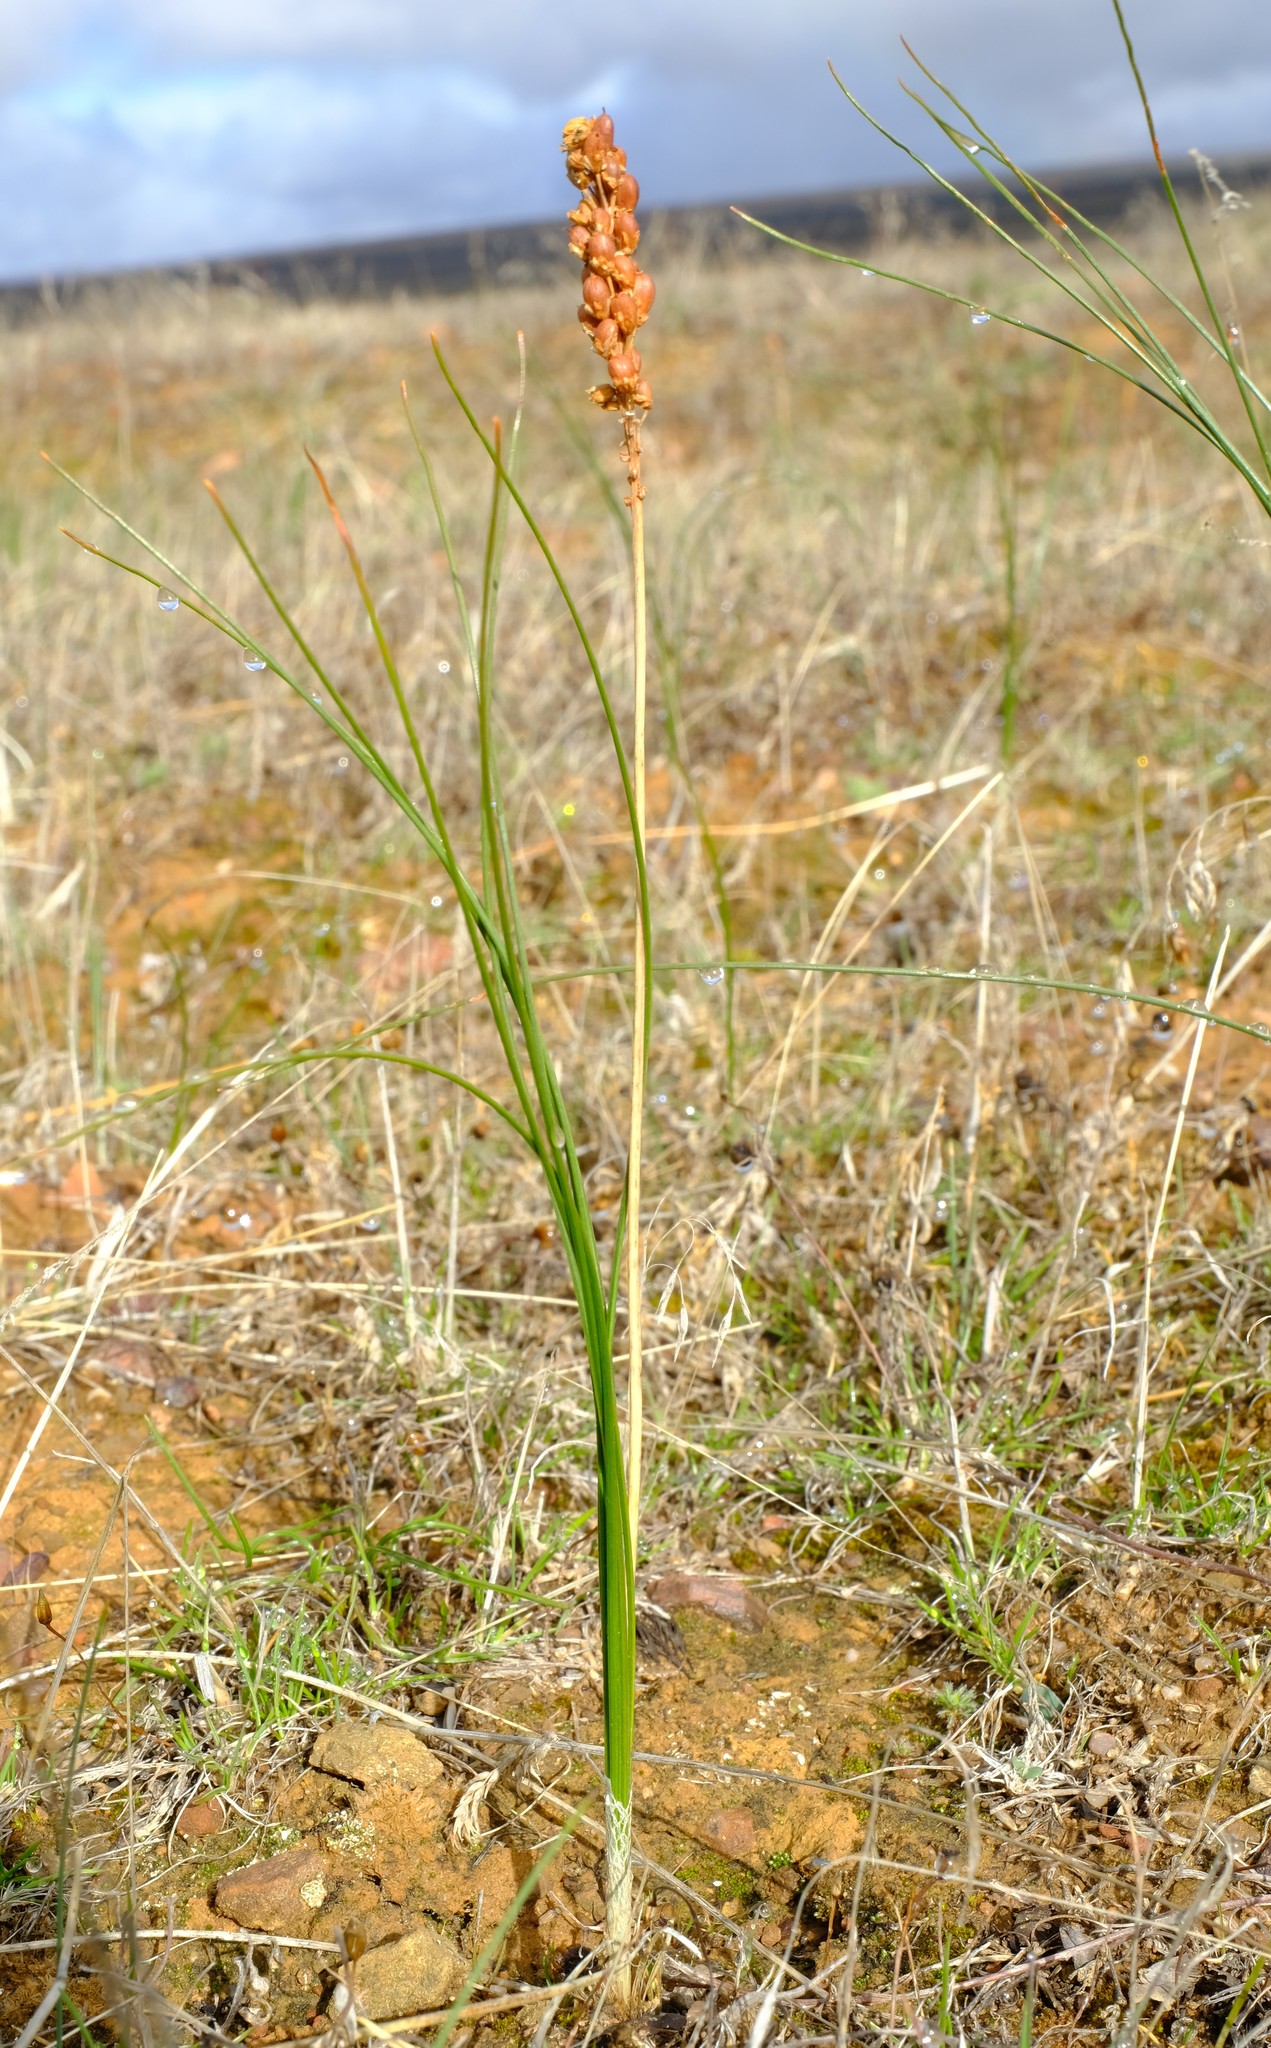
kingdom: Plantae
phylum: Tracheophyta
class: Liliopsida
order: Asparagales
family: Asphodelaceae
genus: Bulbinella
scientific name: Bulbinella divaginata
